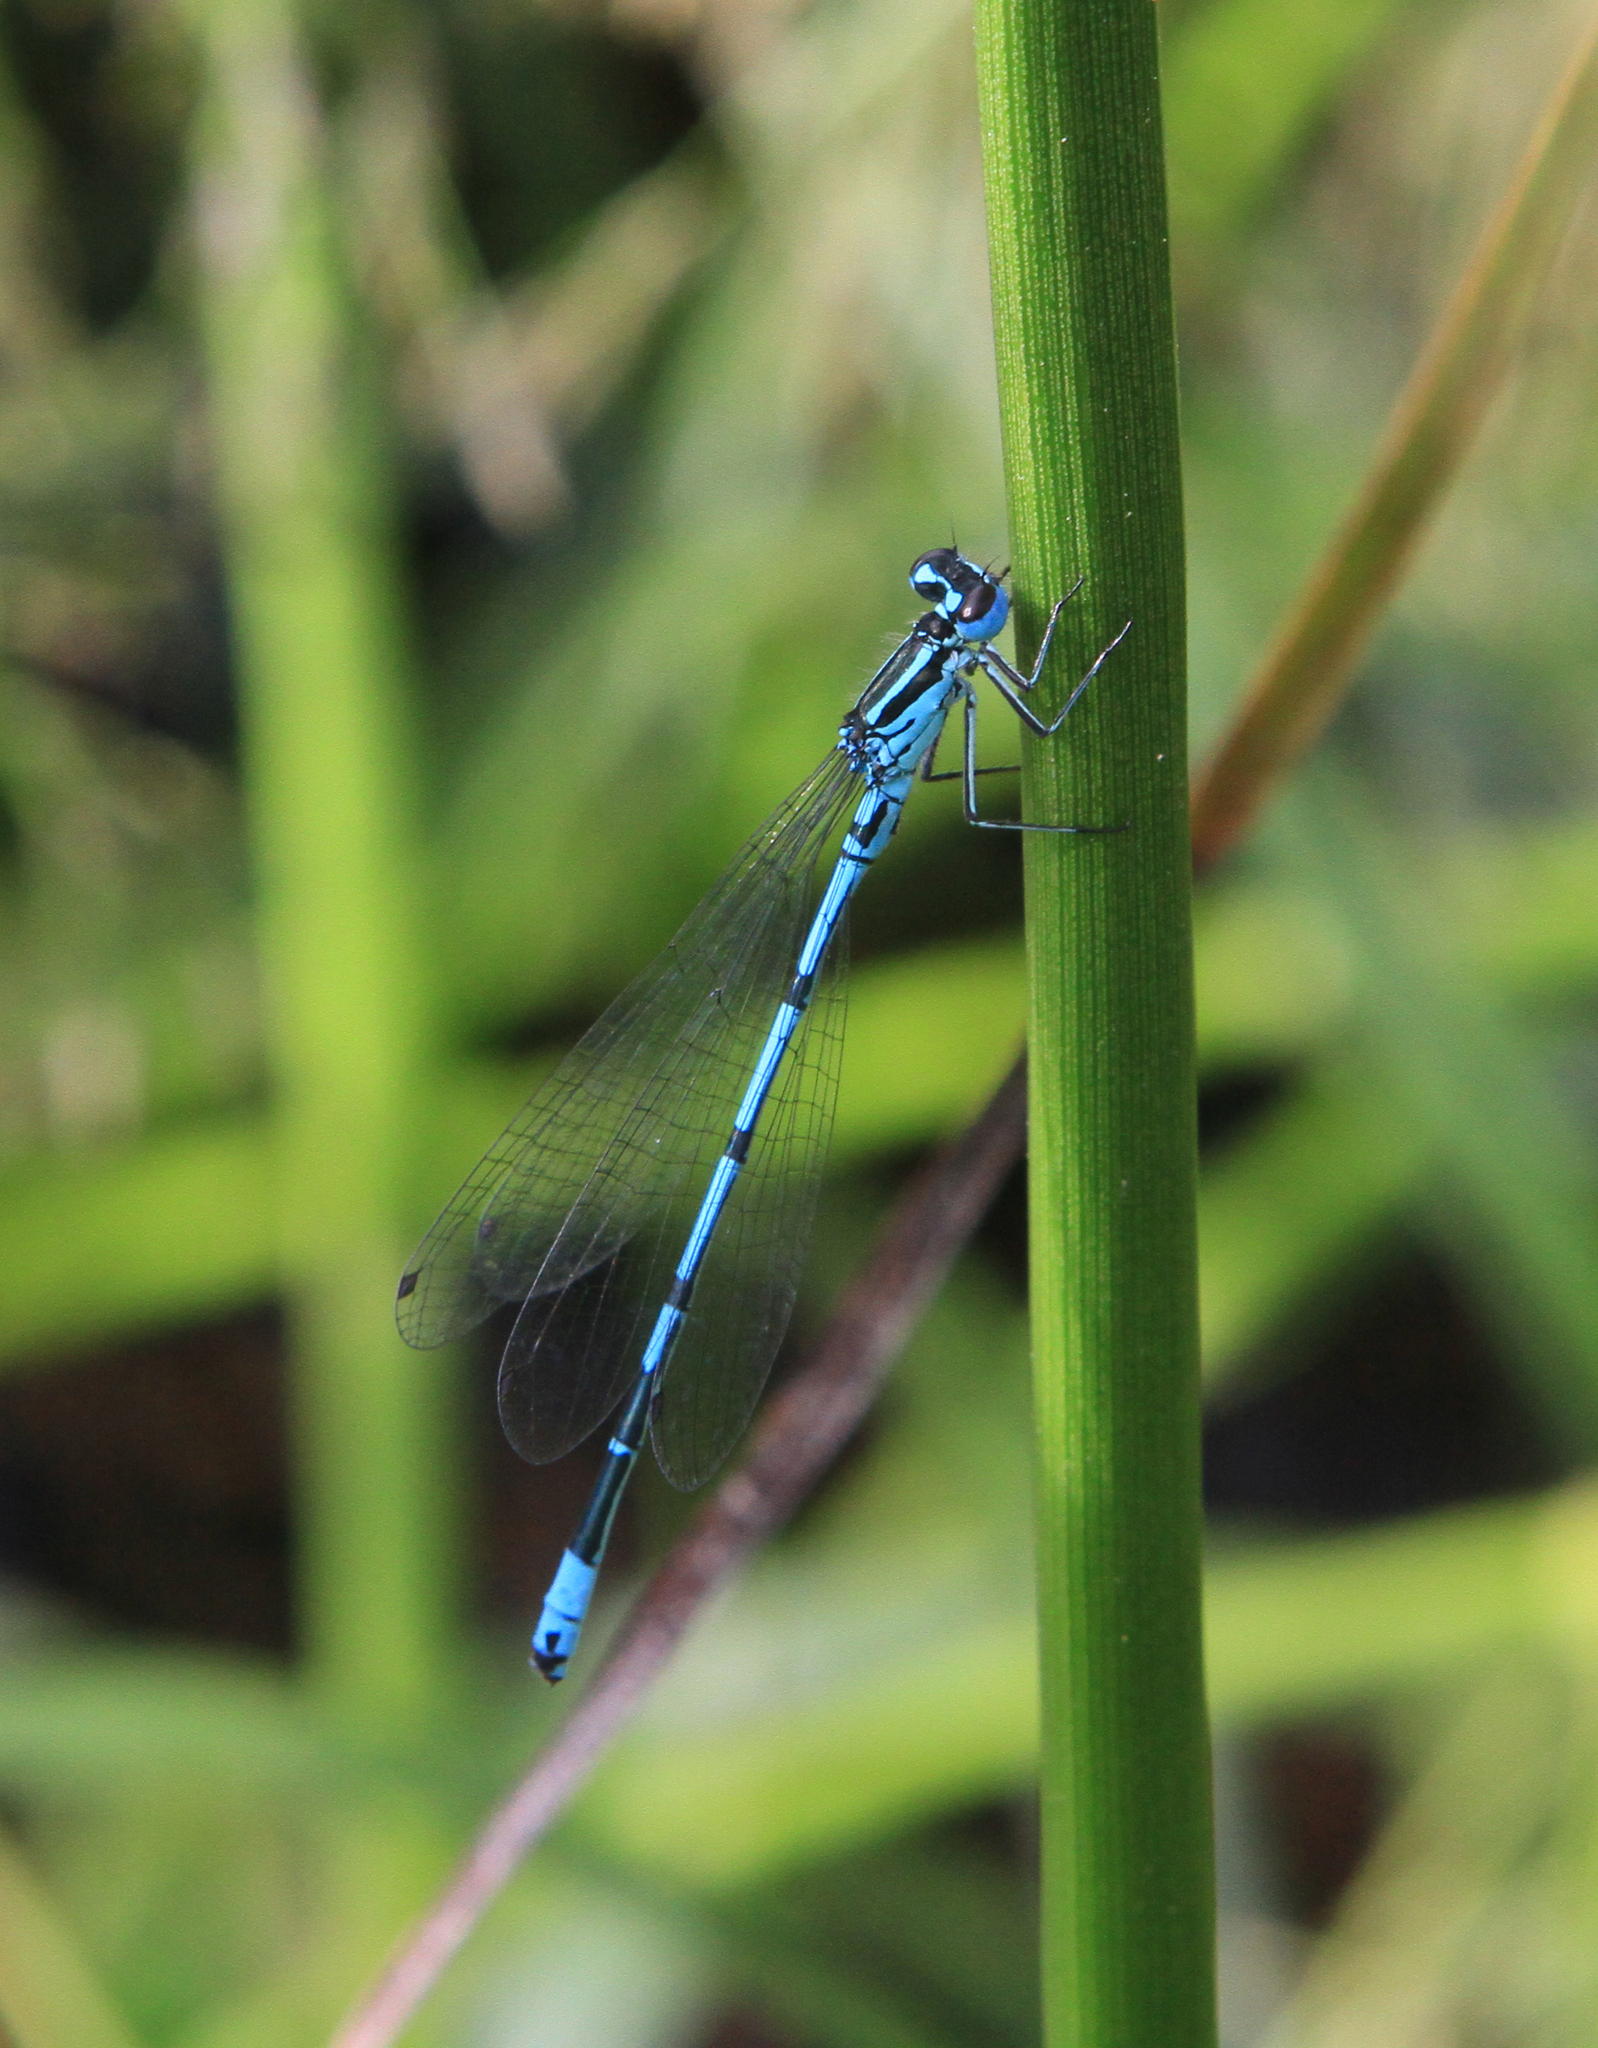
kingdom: Animalia
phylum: Arthropoda
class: Insecta
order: Odonata
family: Coenagrionidae
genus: Coenagrion
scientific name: Coenagrion puella
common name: Azure damselfly
